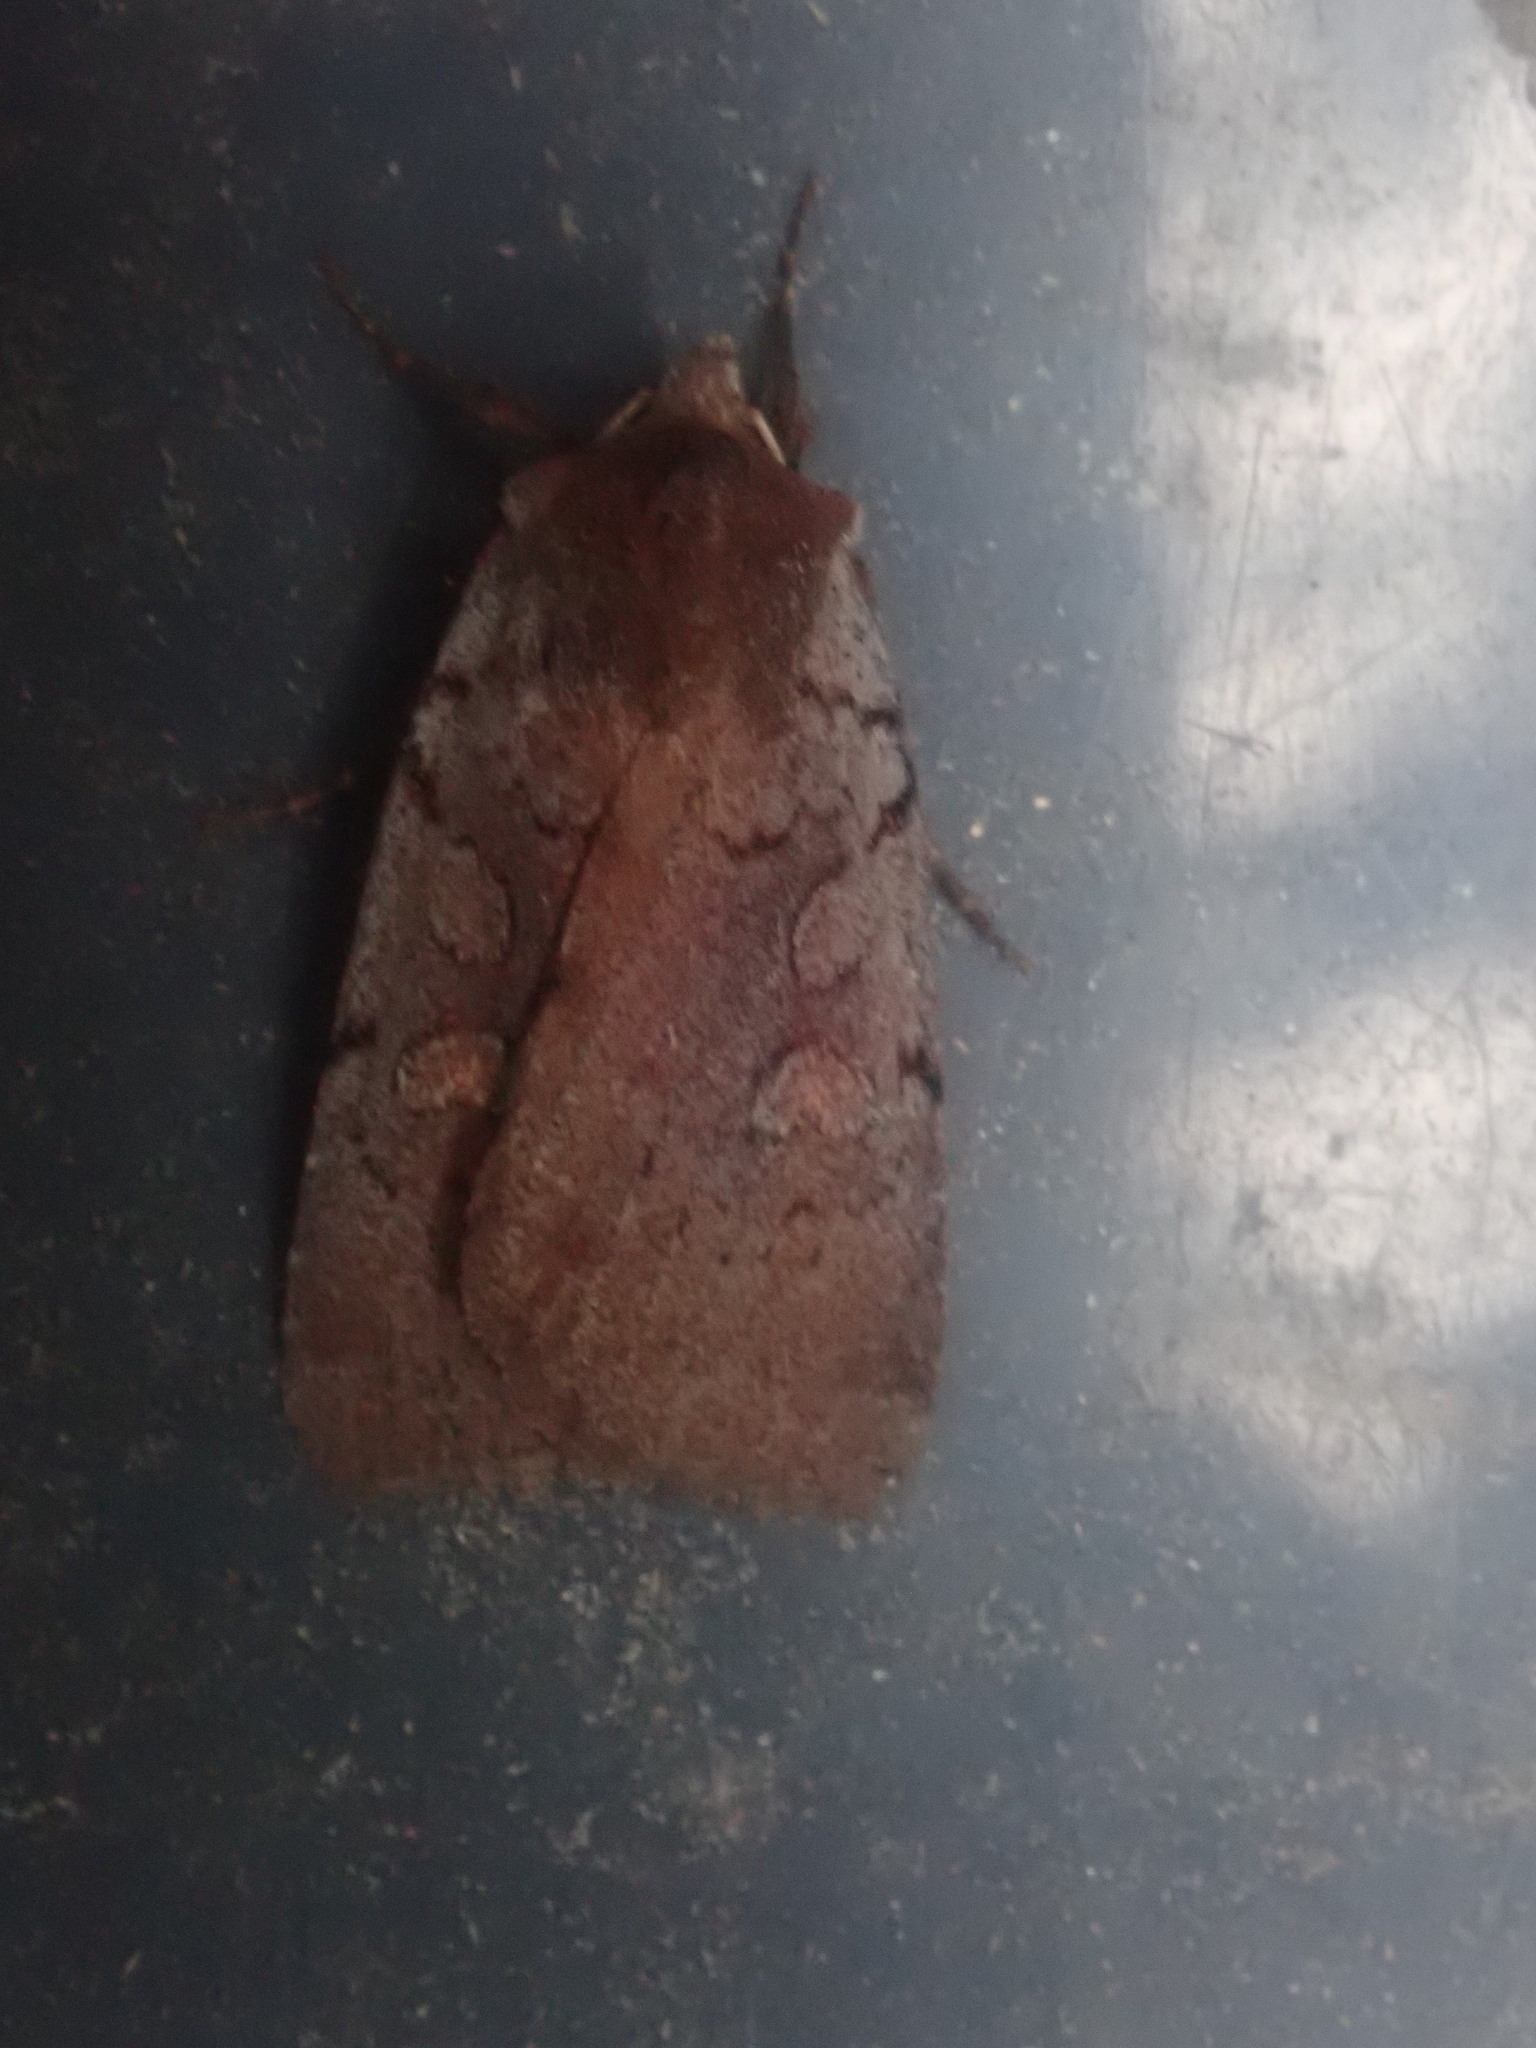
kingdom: Animalia
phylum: Arthropoda
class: Insecta
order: Lepidoptera
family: Noctuidae
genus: Xestia
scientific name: Xestia dilucida
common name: Dull reddish dart
